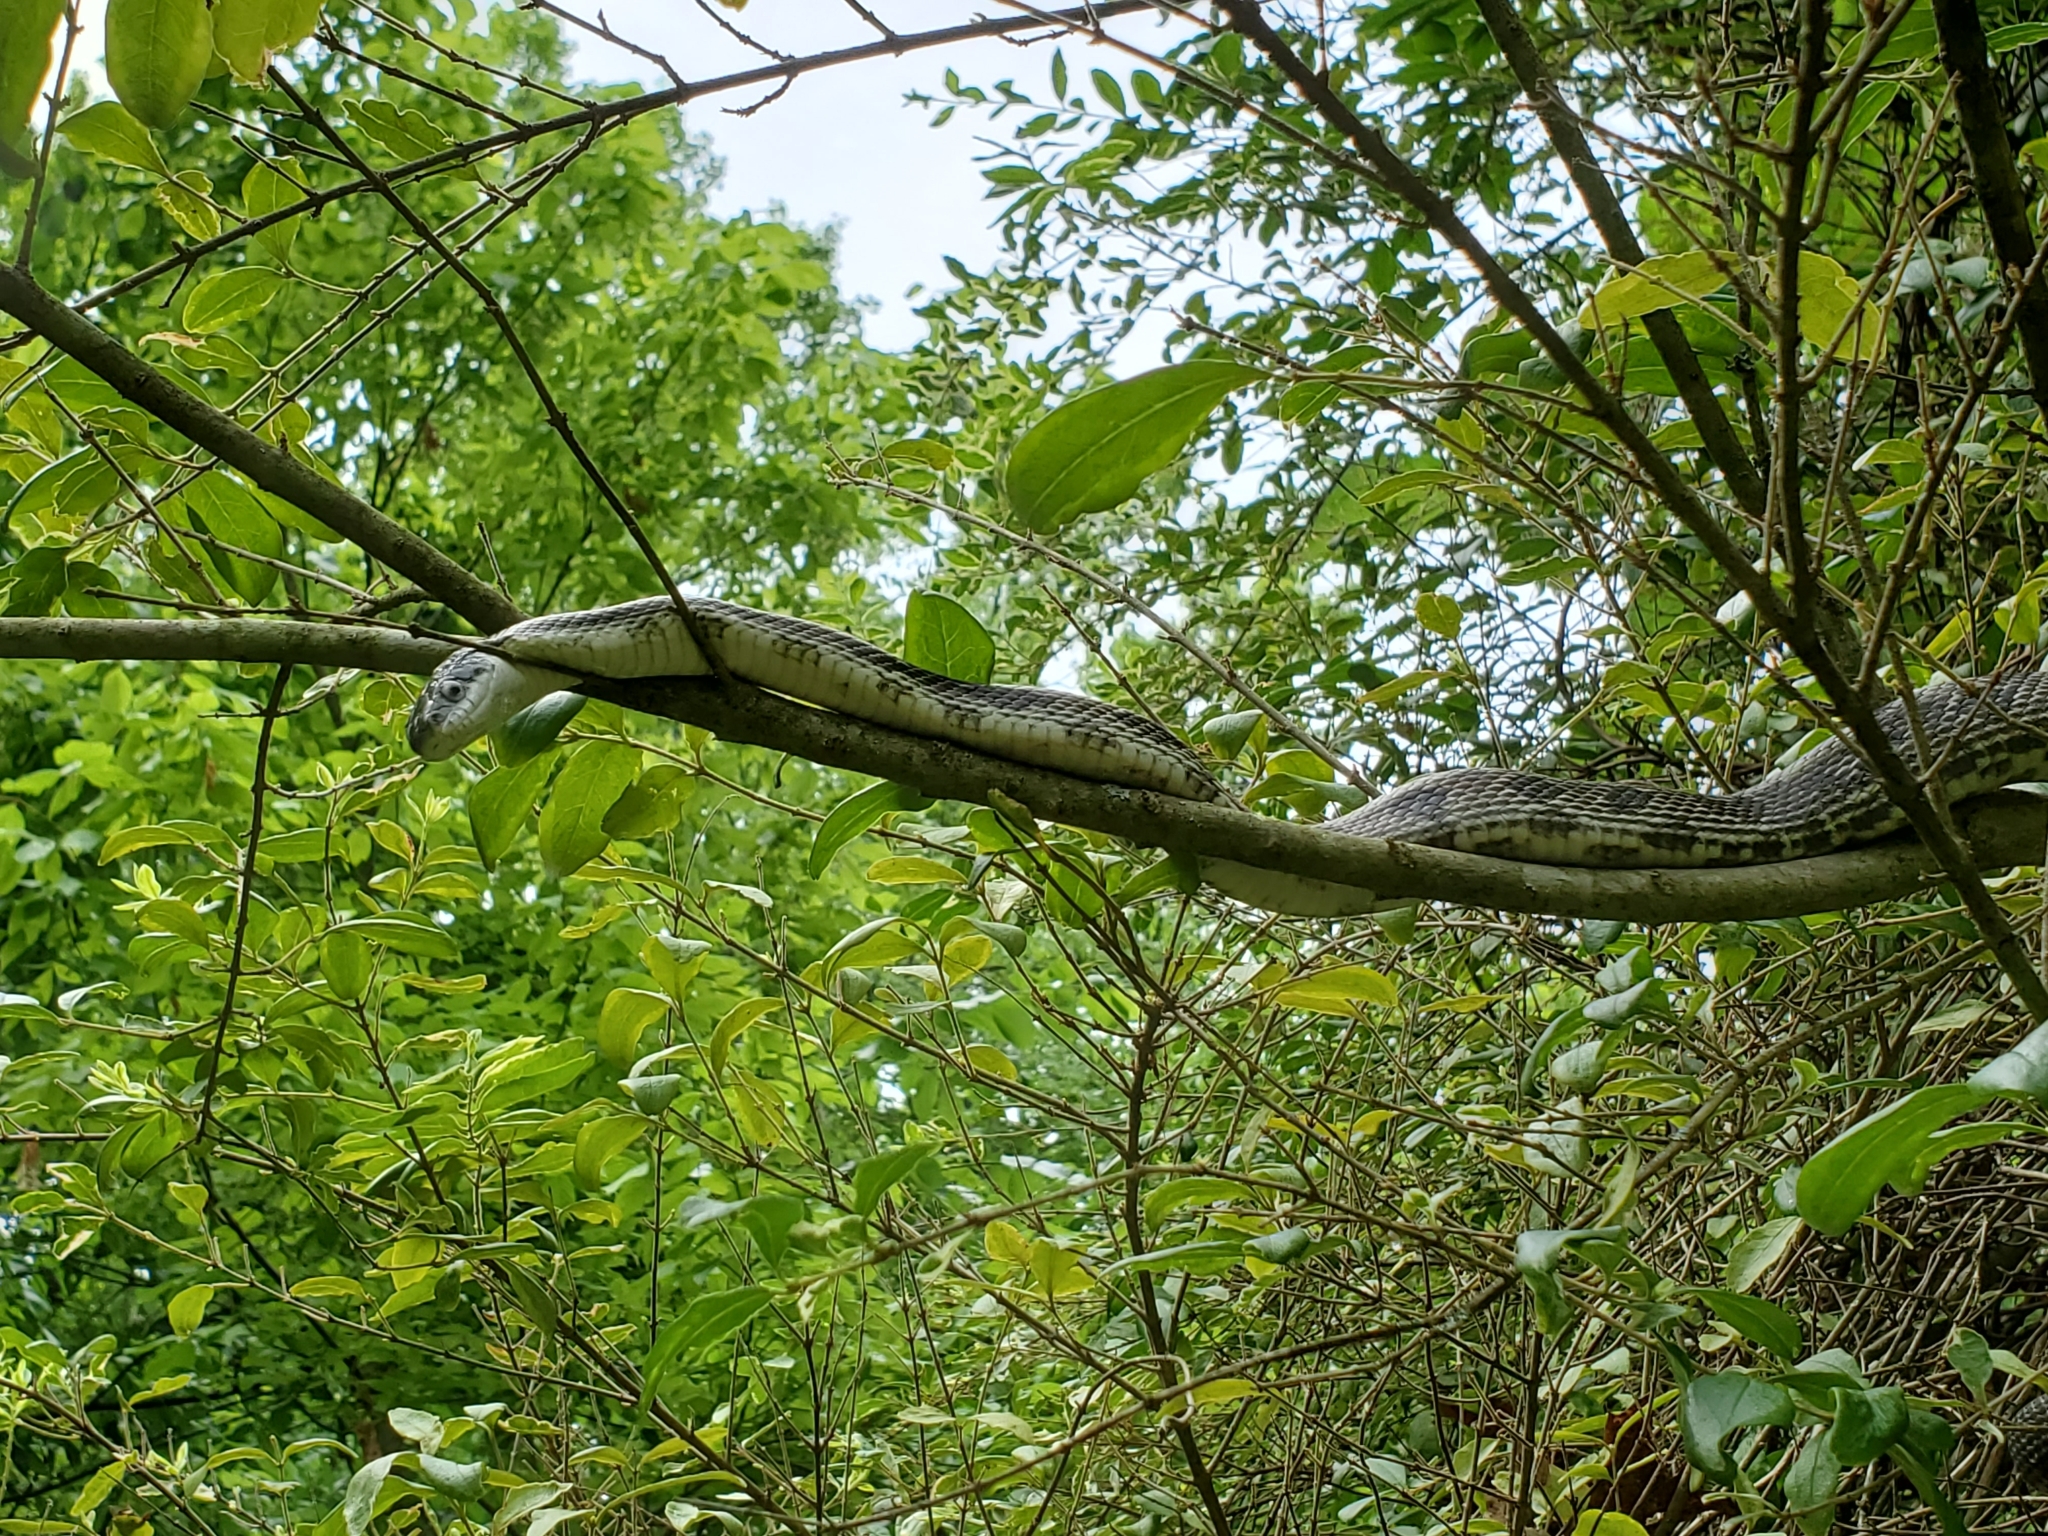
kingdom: Animalia
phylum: Chordata
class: Squamata
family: Colubridae
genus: Pantherophis
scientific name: Pantherophis spiloides
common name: Gray rat snake
